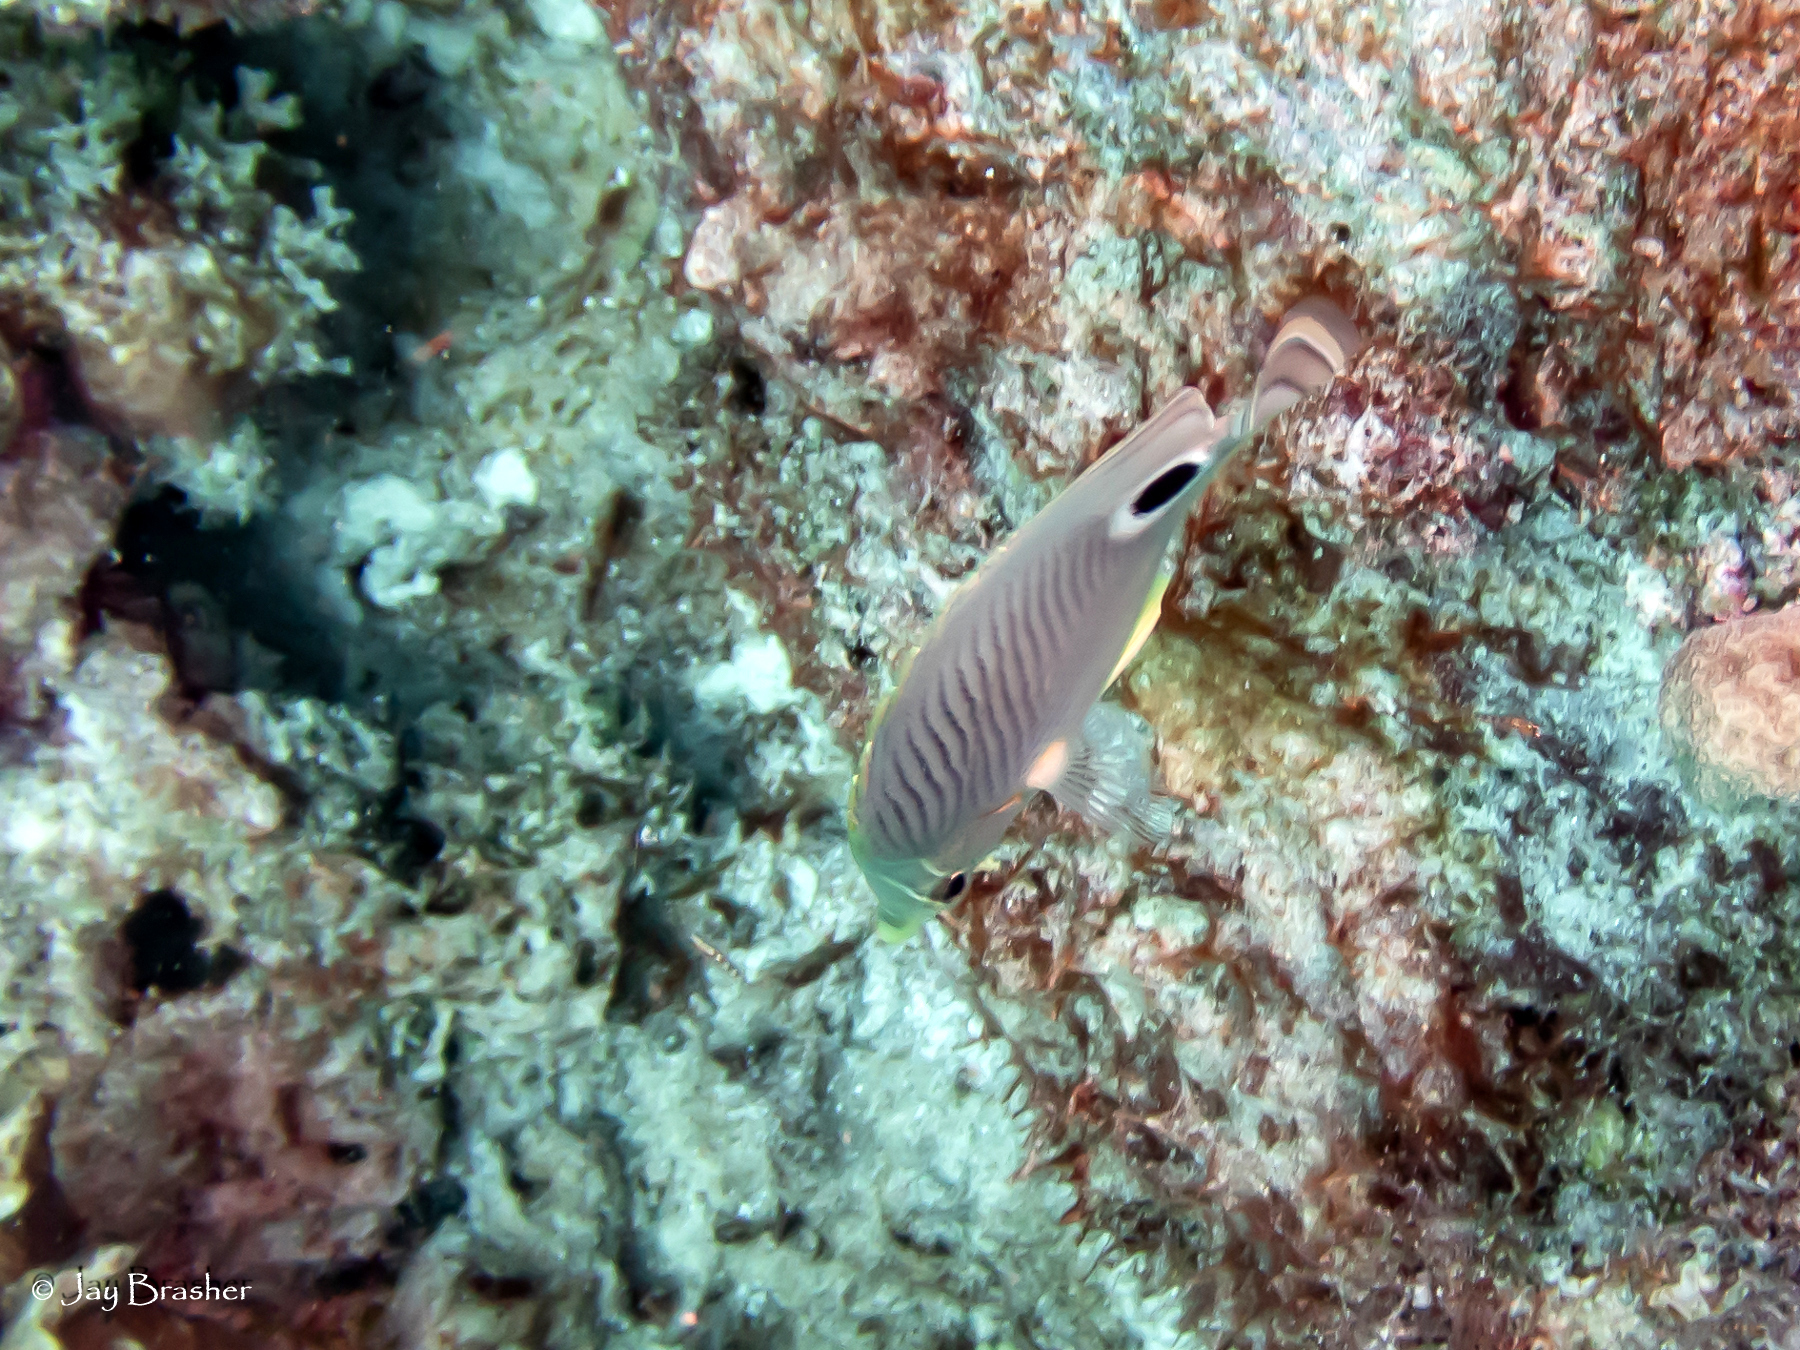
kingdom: Animalia
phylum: Chordata
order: Perciformes
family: Chaetodontidae
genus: Chaetodon
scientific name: Chaetodon capistratus
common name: Kete
